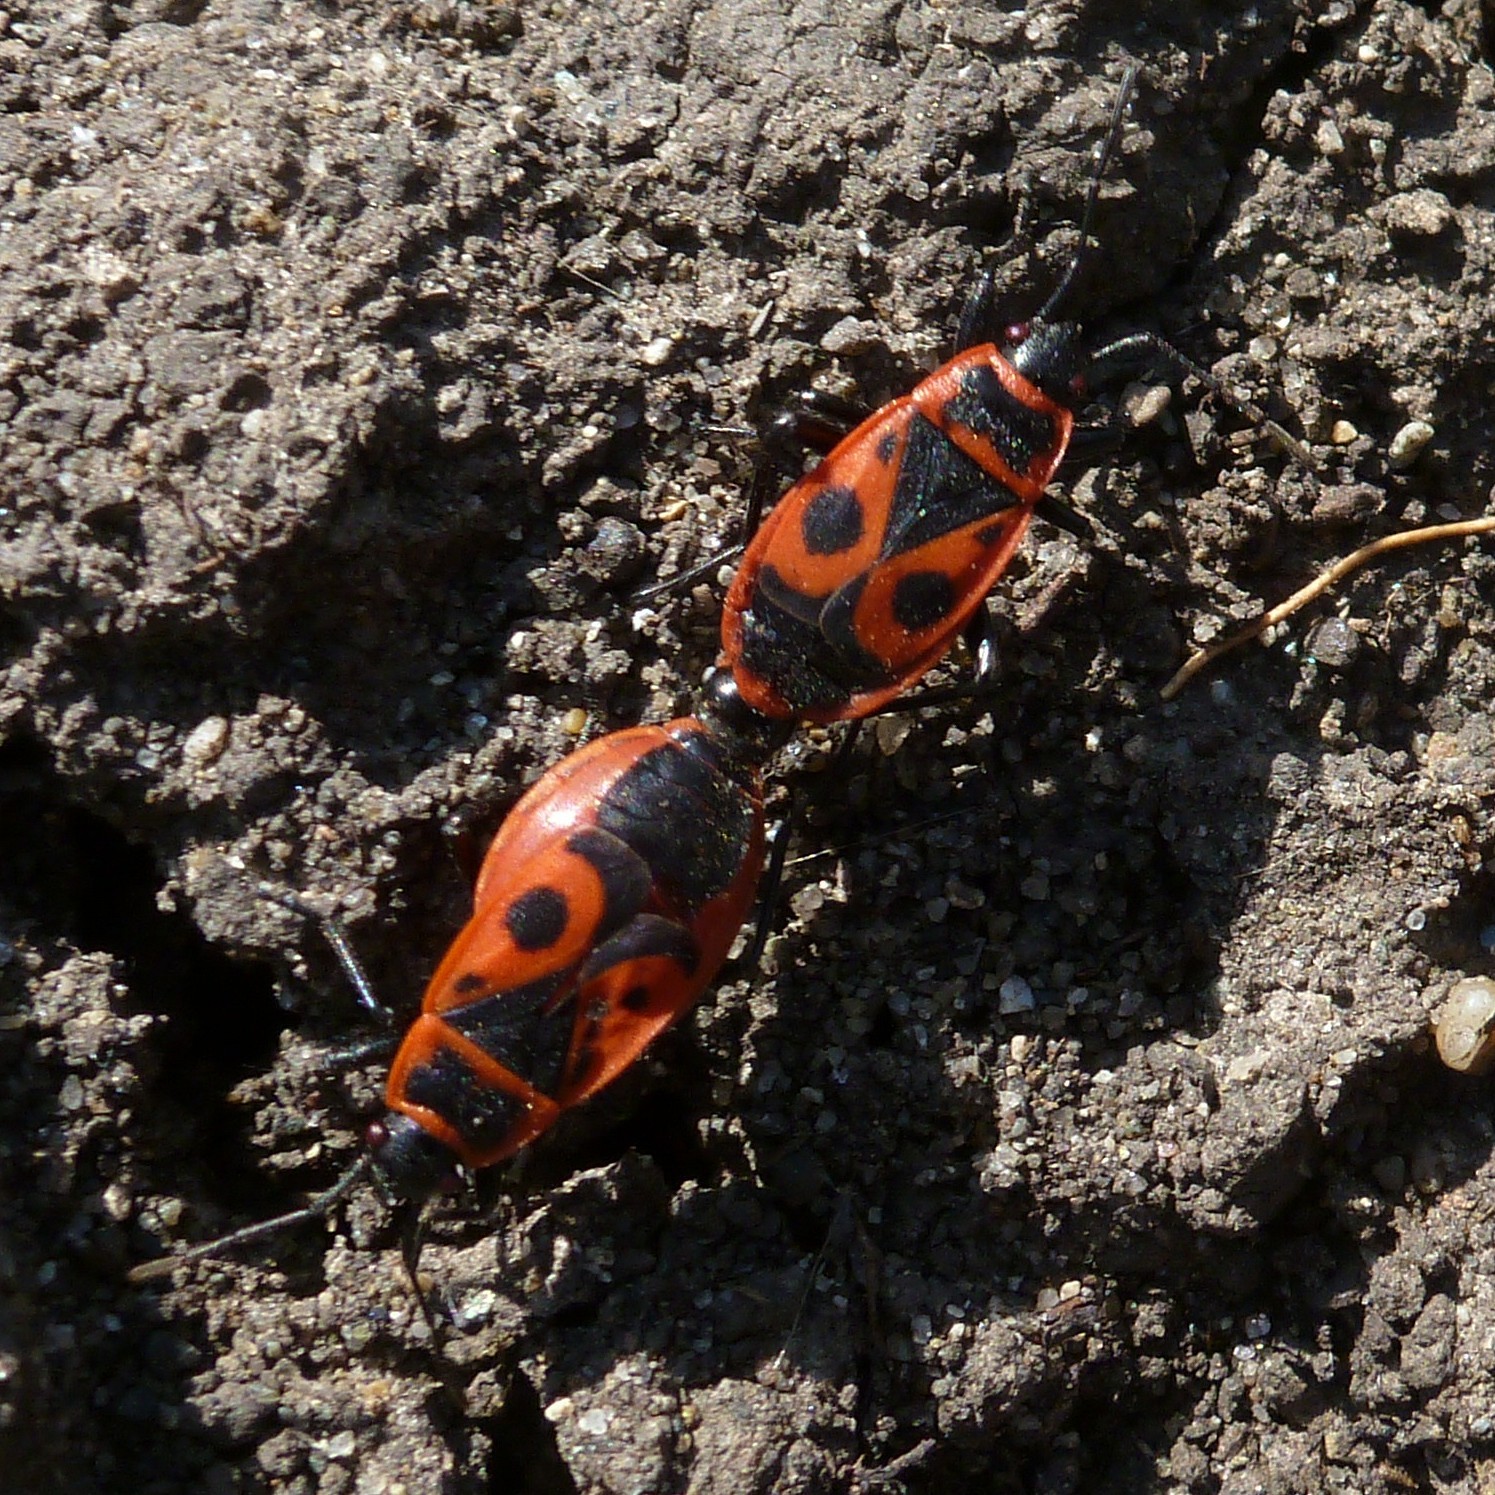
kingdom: Animalia
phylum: Arthropoda
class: Insecta
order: Hemiptera
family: Pyrrhocoridae
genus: Pyrrhocoris
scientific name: Pyrrhocoris apterus
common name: Firebug
